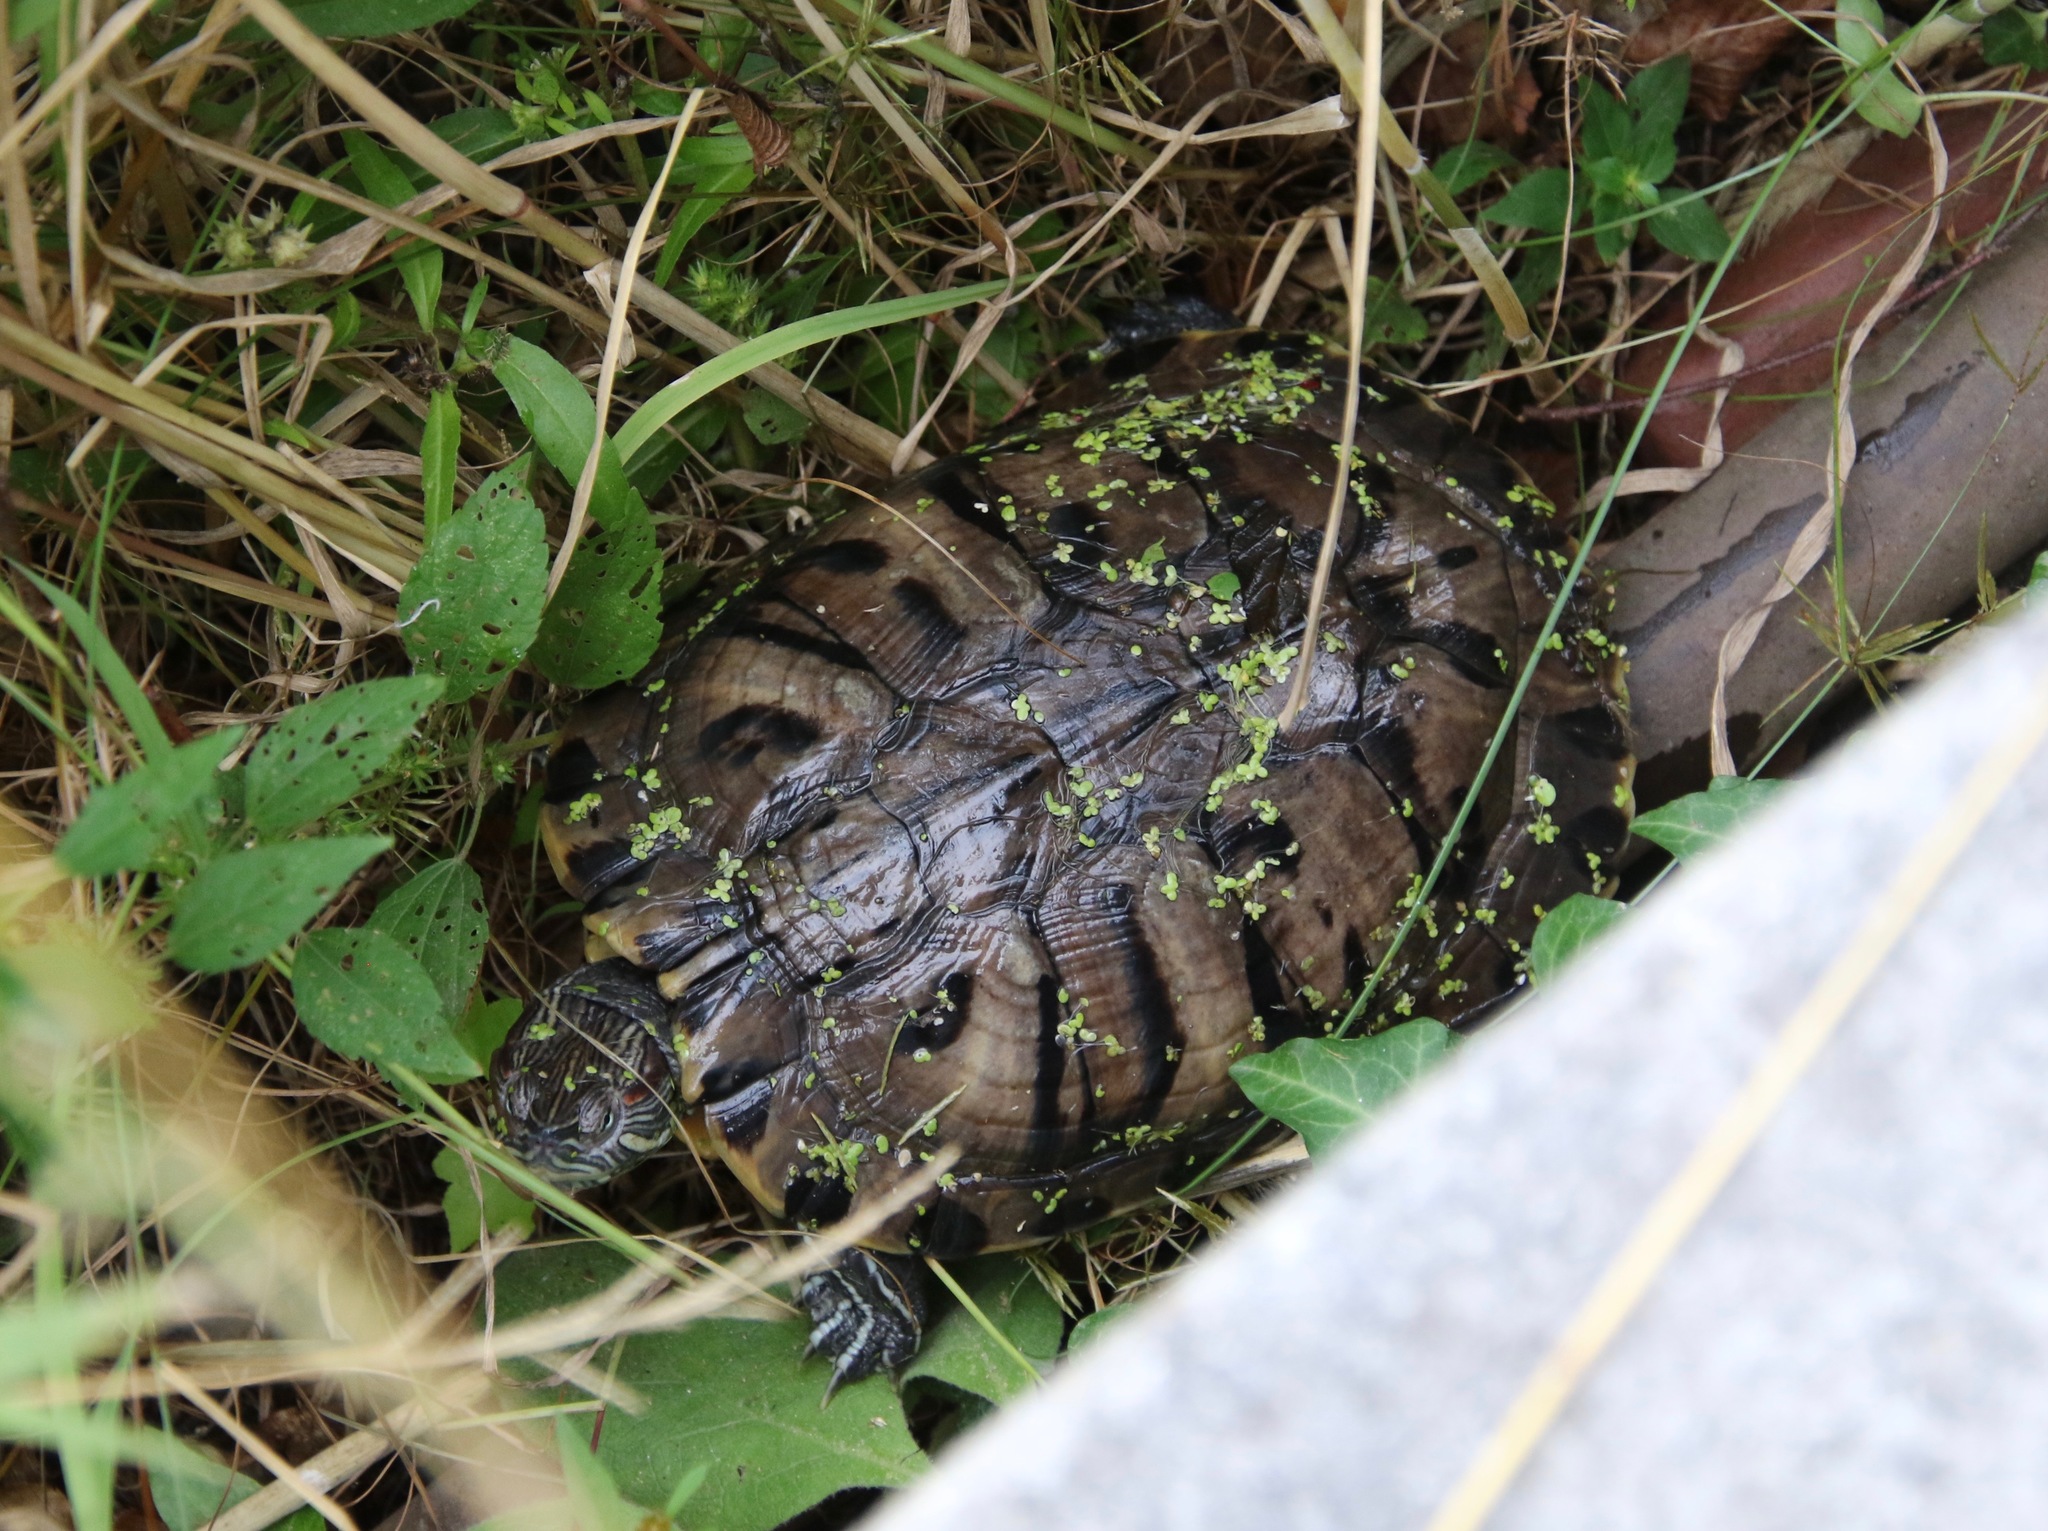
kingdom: Animalia
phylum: Chordata
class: Testudines
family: Emydidae
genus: Trachemys
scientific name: Trachemys scripta
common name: Slider
